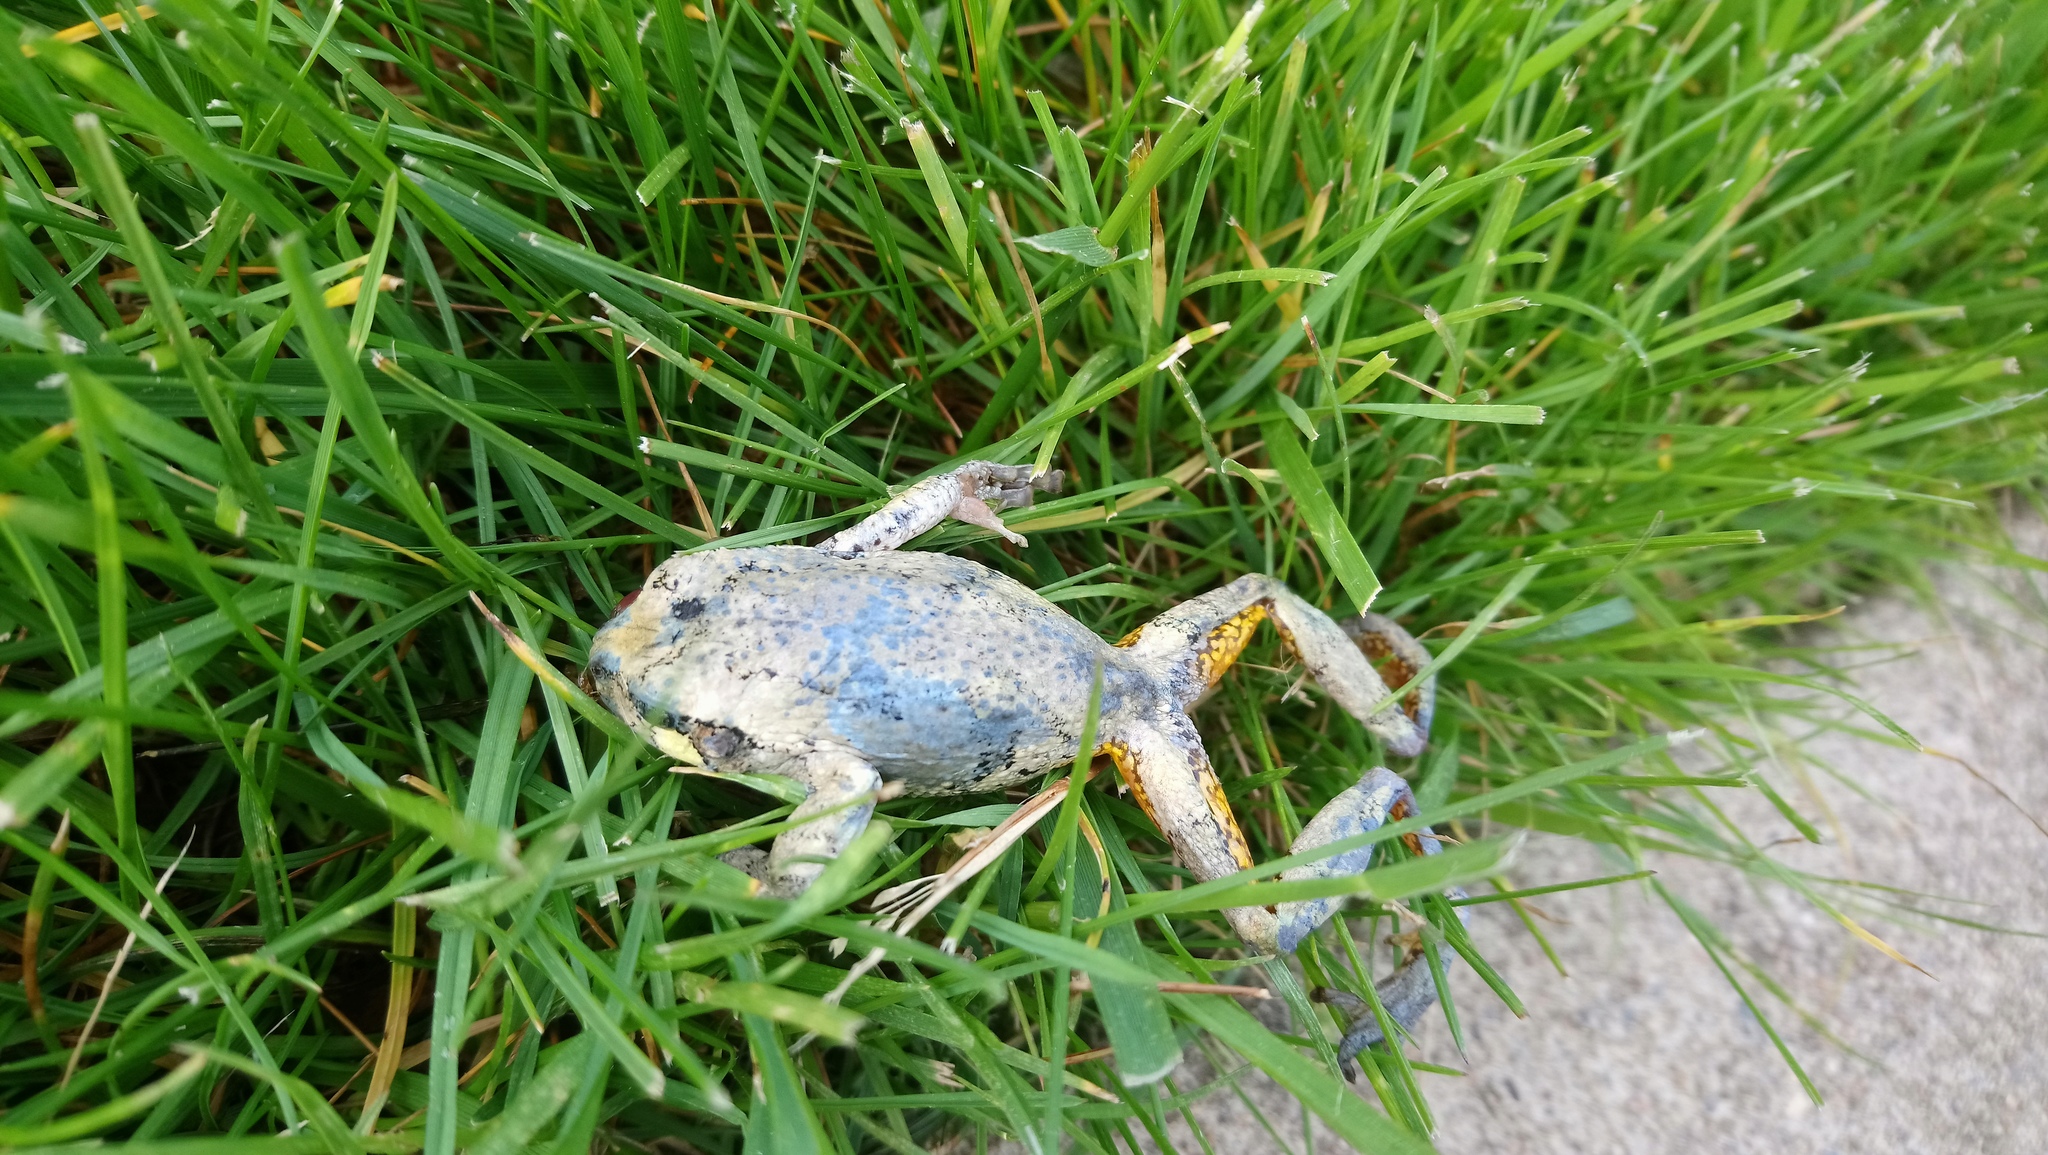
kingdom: Animalia
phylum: Chordata
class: Amphibia
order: Anura
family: Hylidae
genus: Dryophytes
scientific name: Dryophytes versicolor
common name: Gray treefrog
